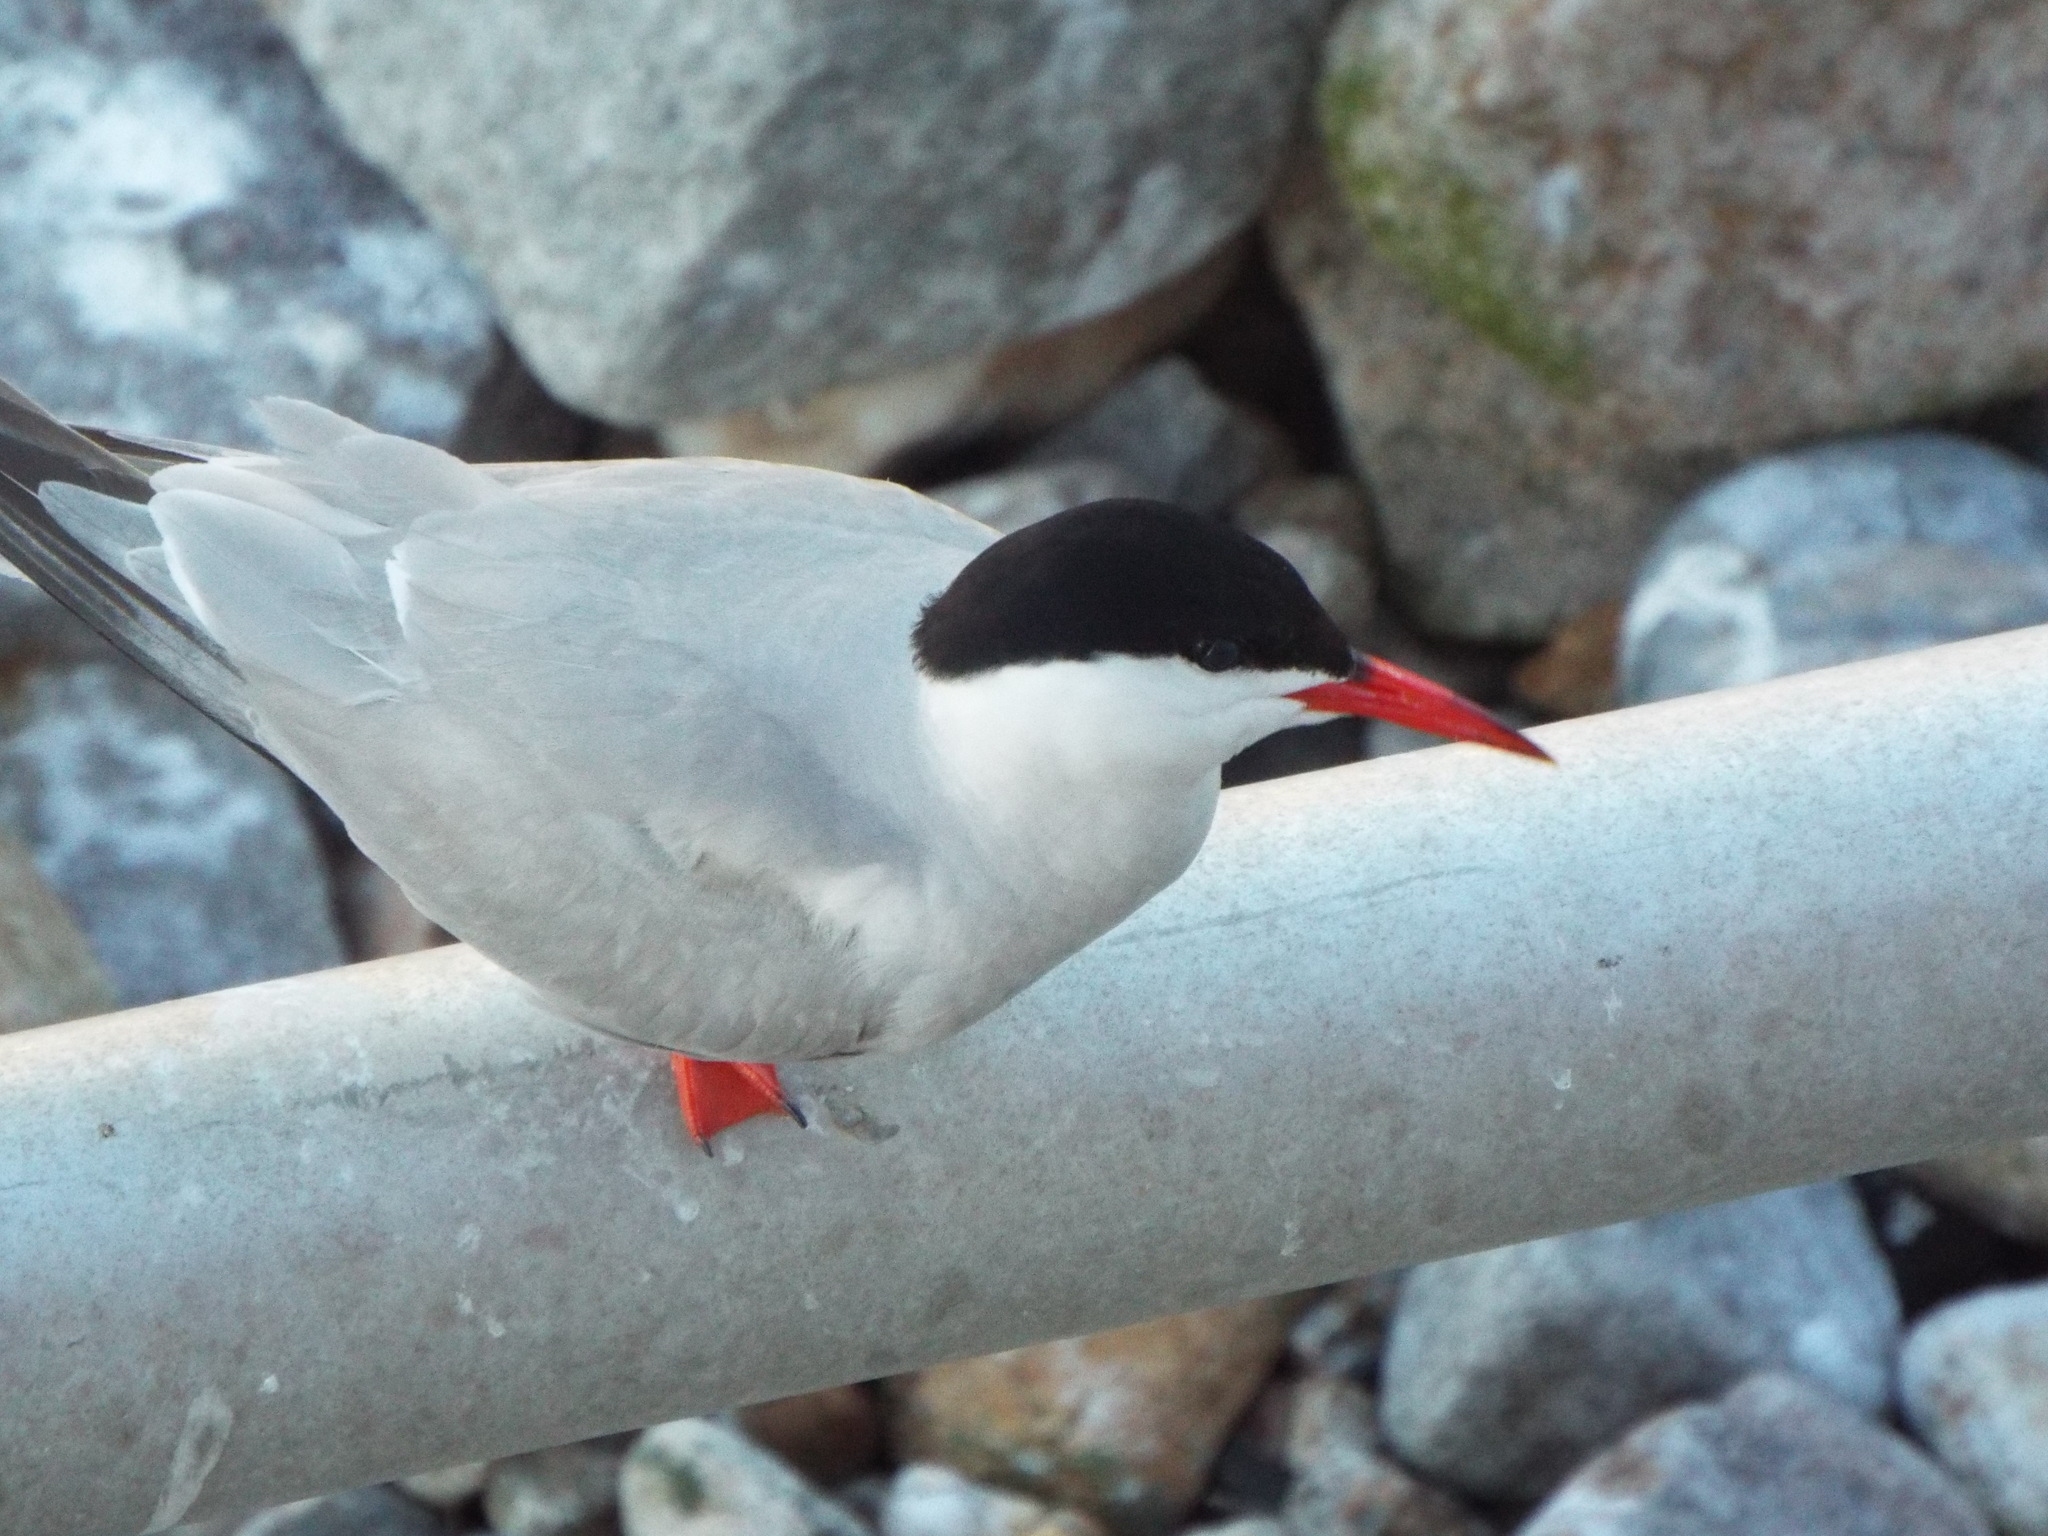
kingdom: Animalia
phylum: Chordata
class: Aves
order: Charadriiformes
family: Laridae
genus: Sterna
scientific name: Sterna hirundo
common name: Common tern
